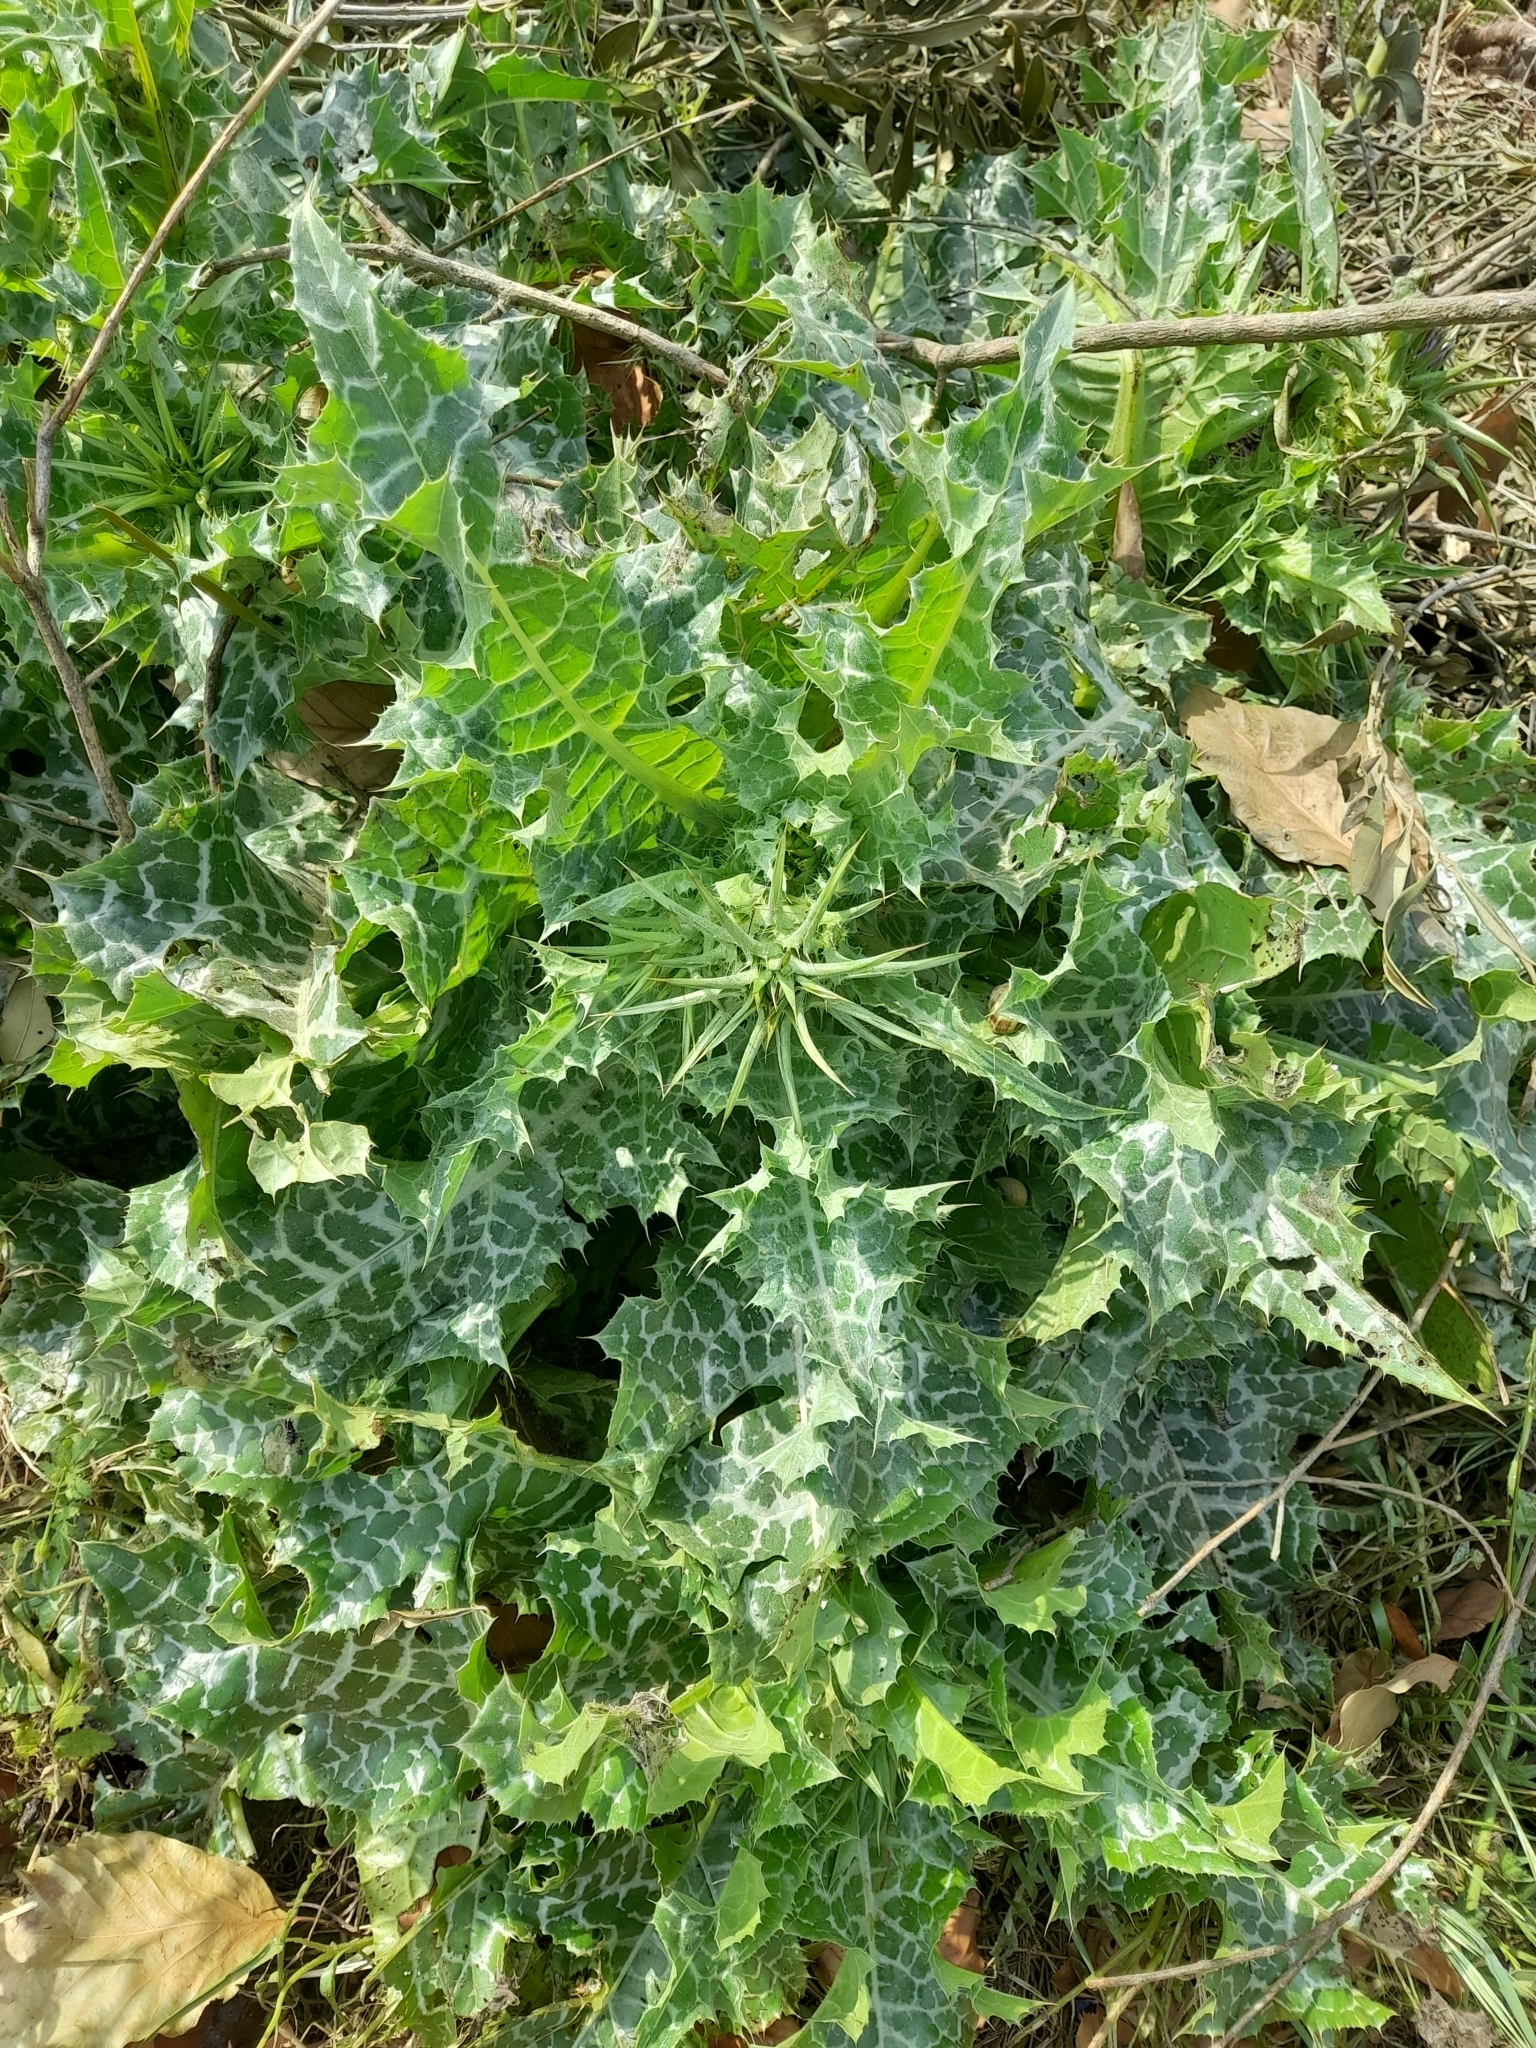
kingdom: Plantae
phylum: Tracheophyta
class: Magnoliopsida
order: Asterales
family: Asteraceae
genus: Silybum
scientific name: Silybum marianum
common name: Milk thistle
